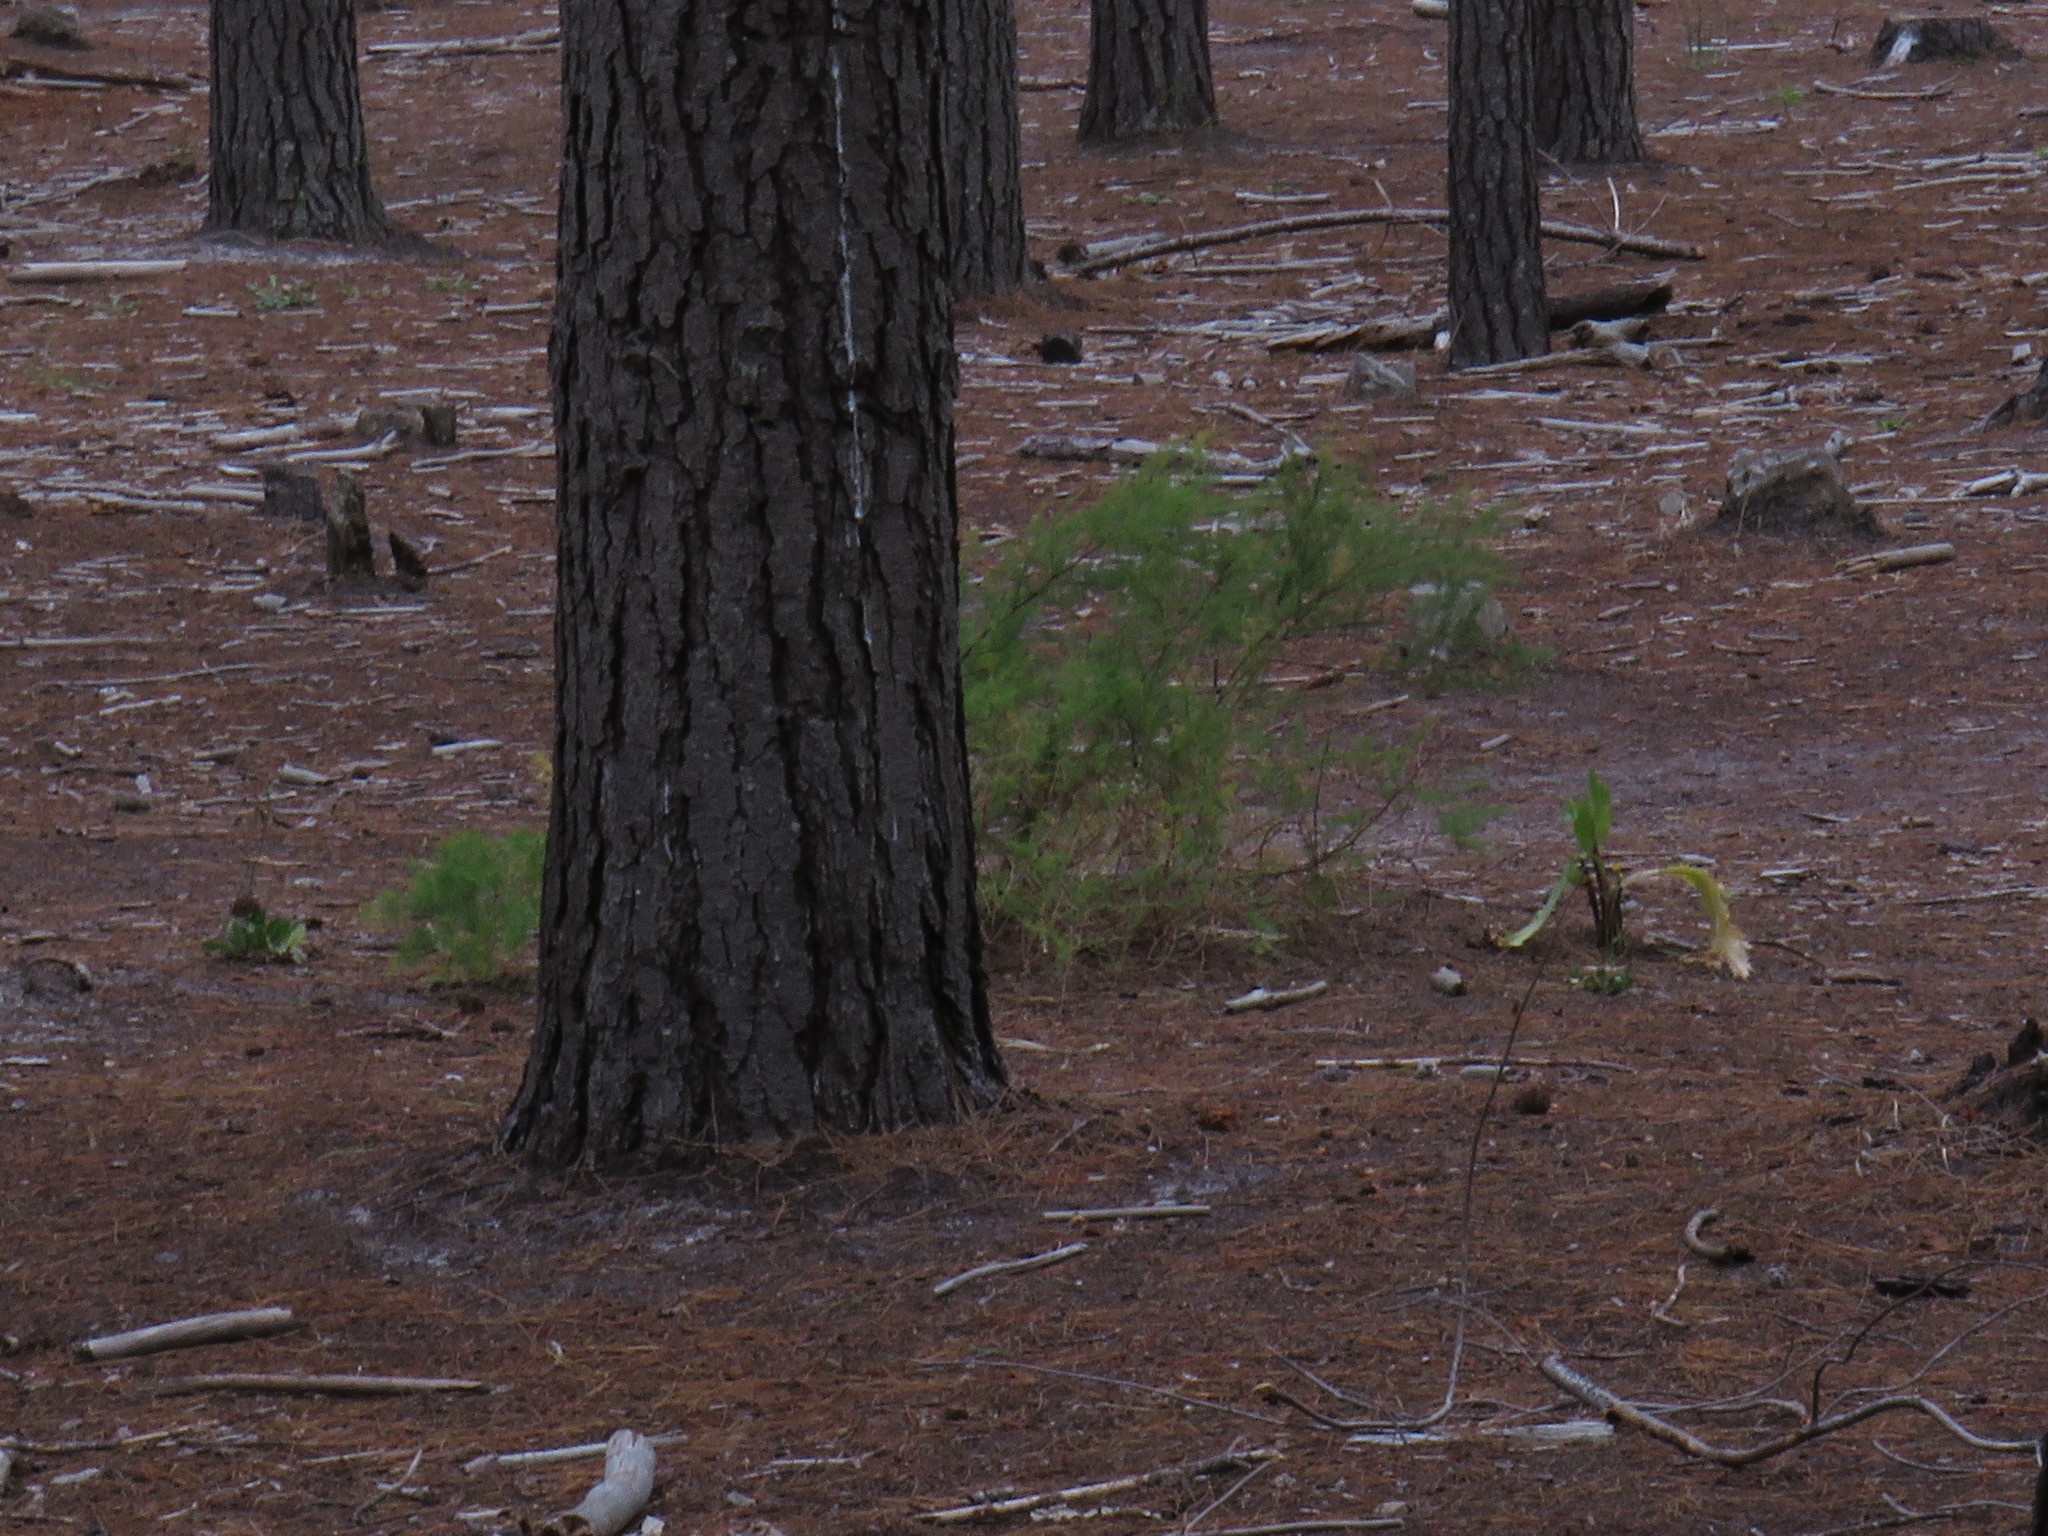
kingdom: Plantae
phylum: Tracheophyta
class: Liliopsida
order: Asparagales
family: Asparagaceae
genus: Asparagus
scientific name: Asparagus rubicundus
